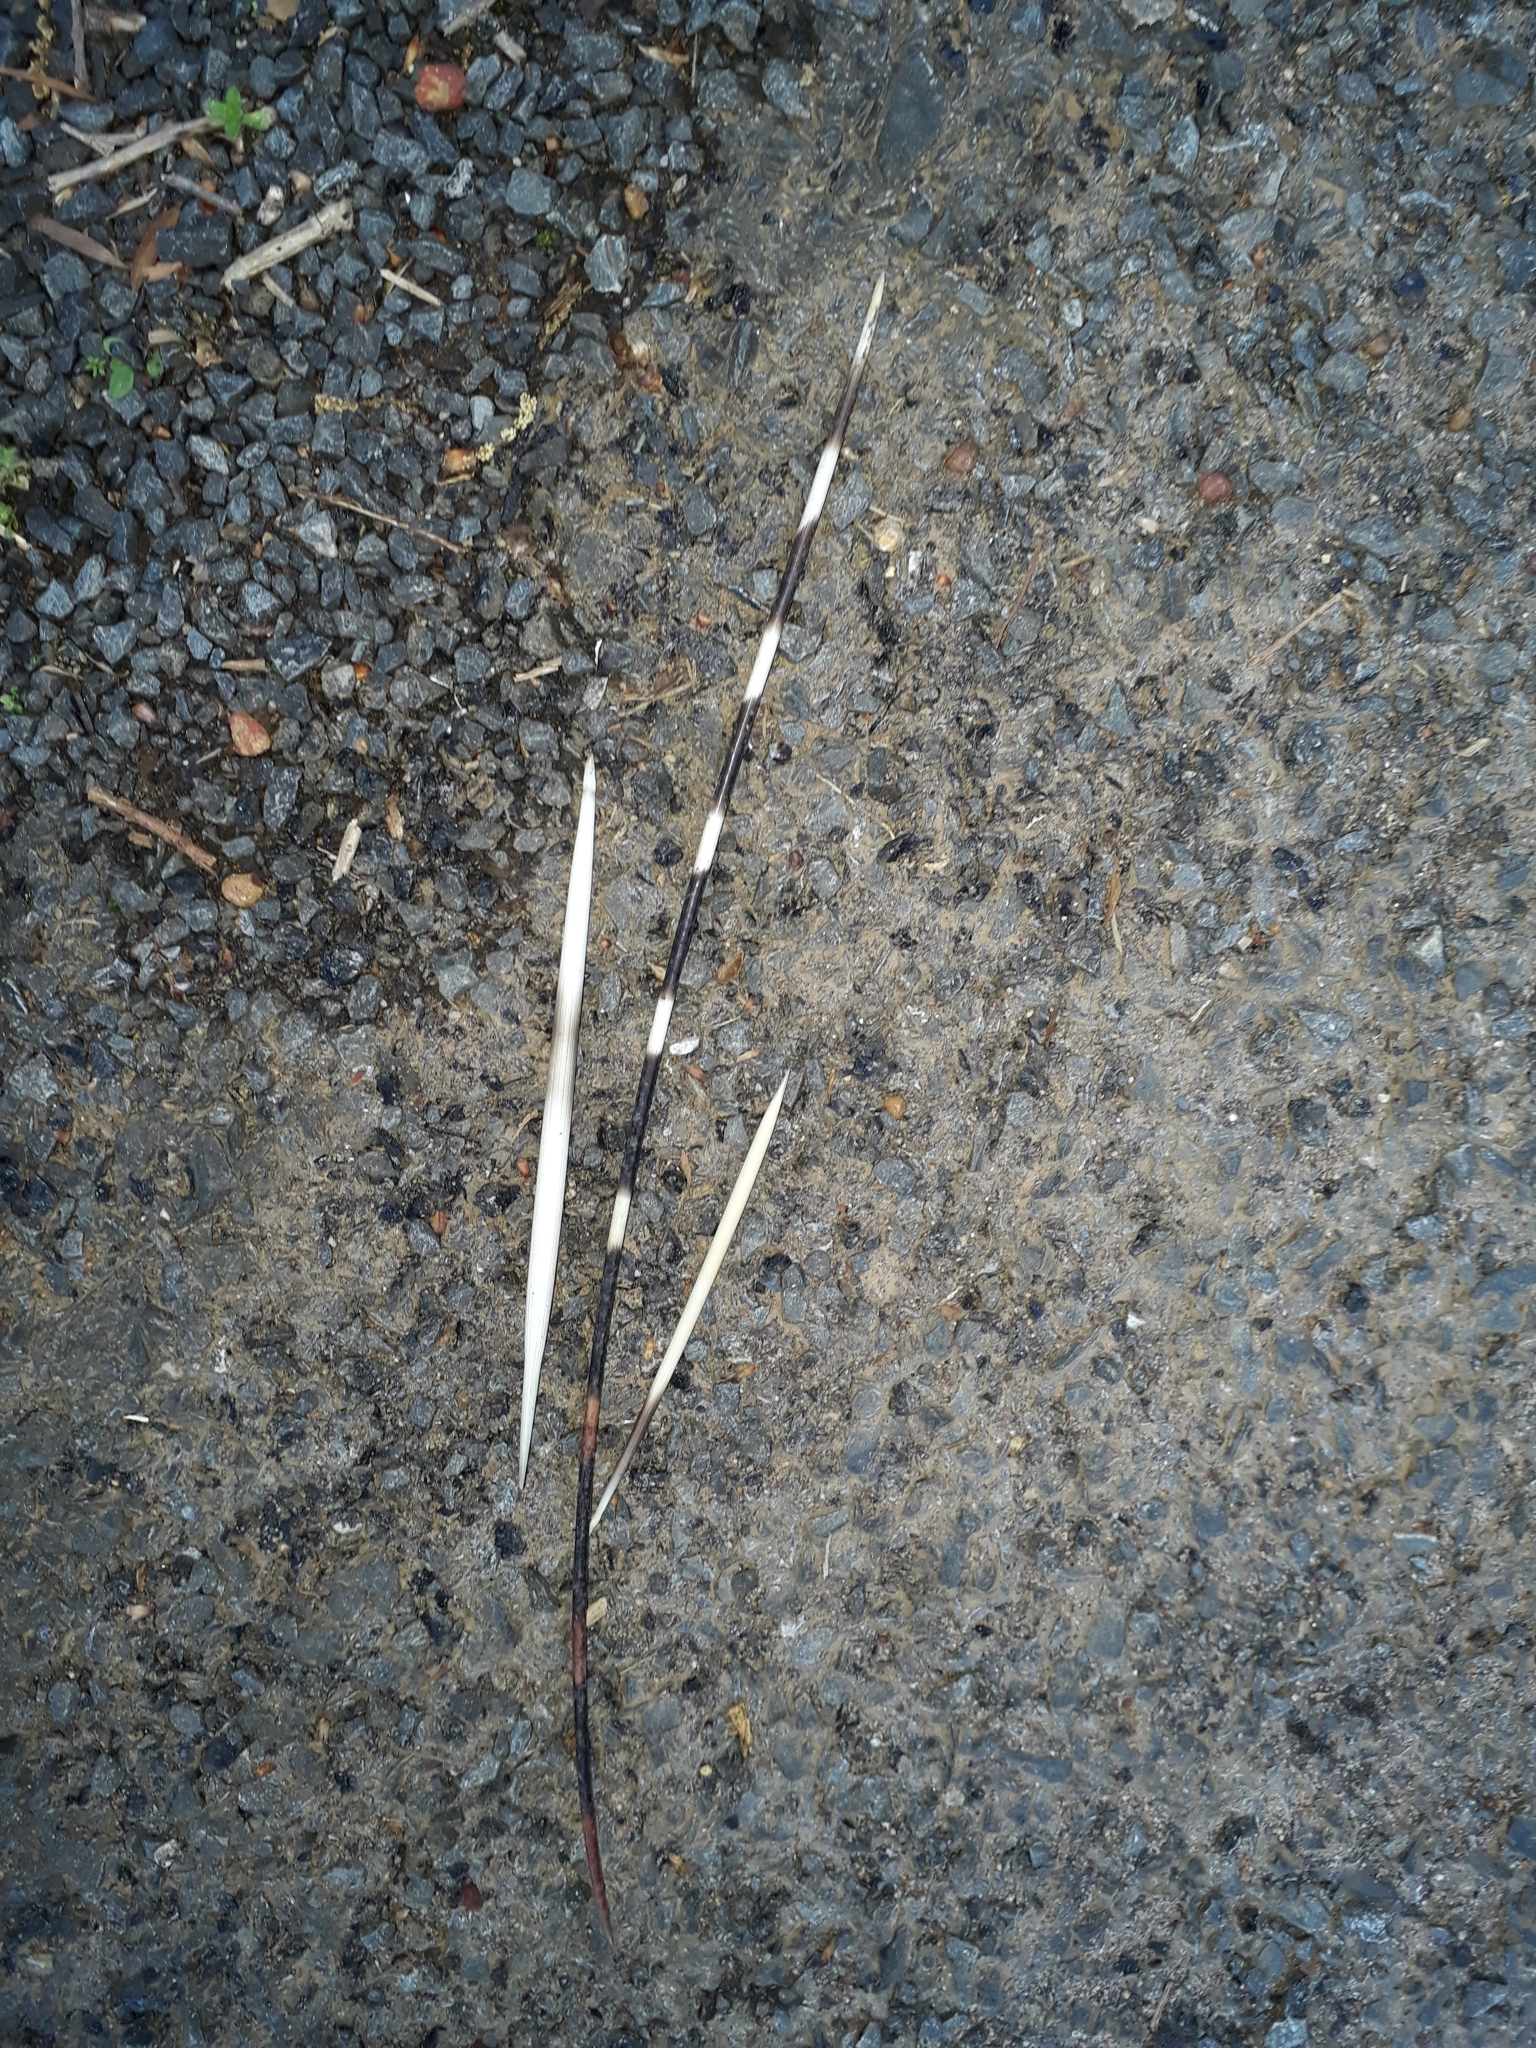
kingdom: Animalia
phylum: Chordata
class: Mammalia
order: Rodentia
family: Hystricidae
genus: Hystrix
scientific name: Hystrix africaeaustralis
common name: Cape porcupine
